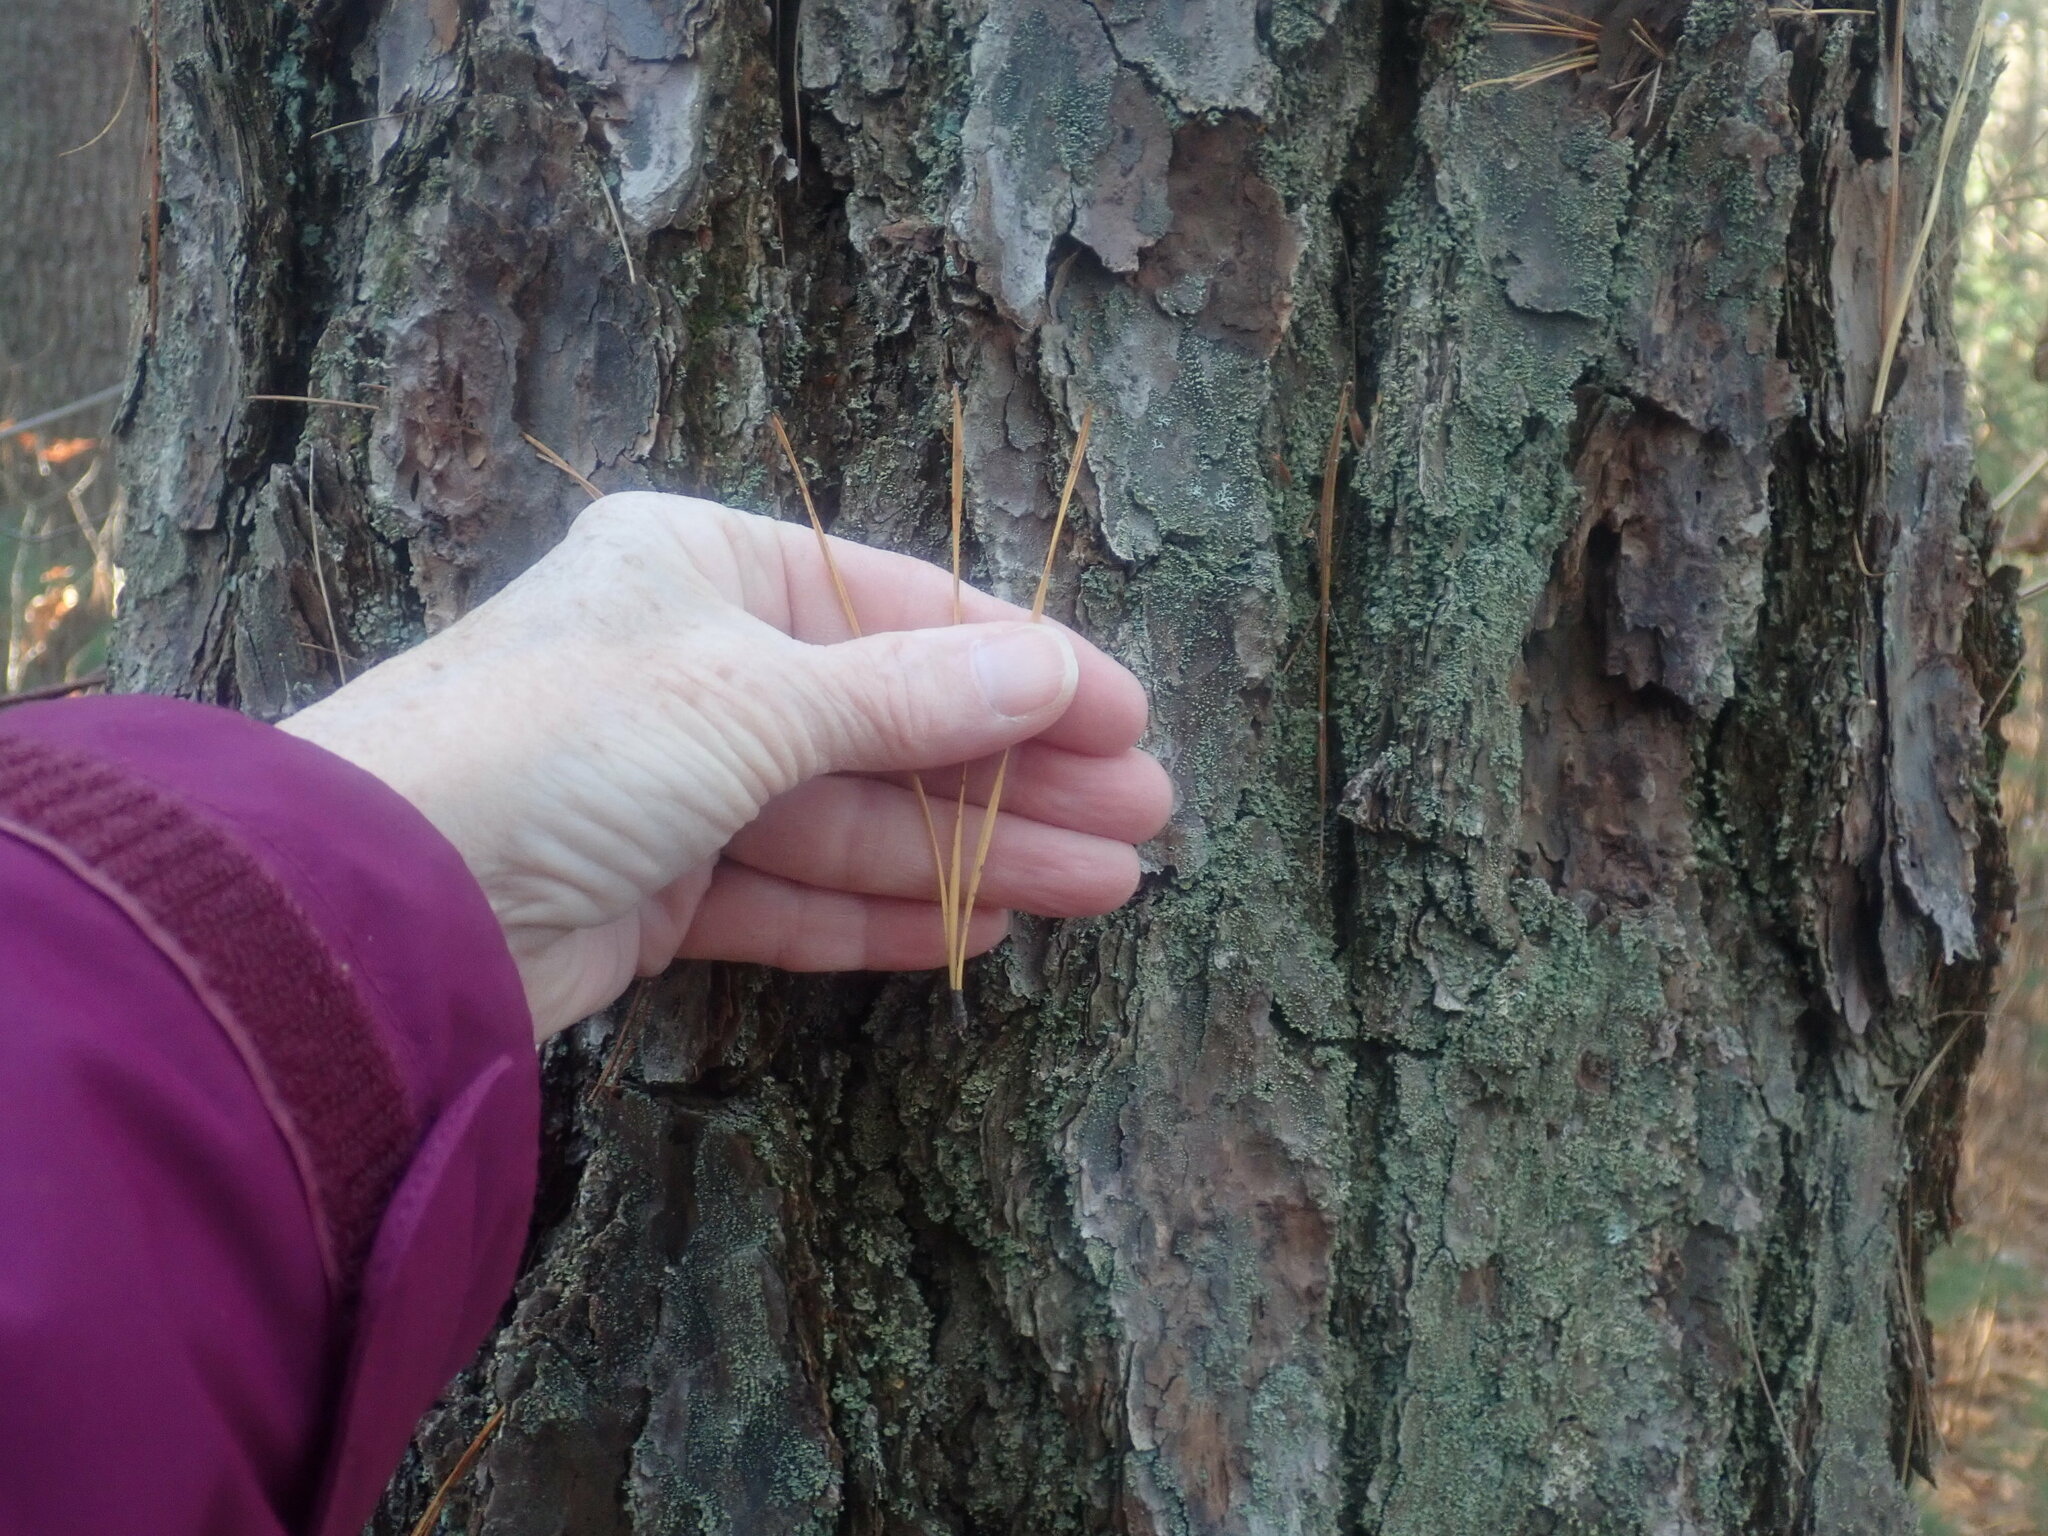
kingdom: Plantae
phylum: Tracheophyta
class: Pinopsida
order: Pinales
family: Pinaceae
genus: Pinus
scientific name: Pinus rigida
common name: Pitch pine
